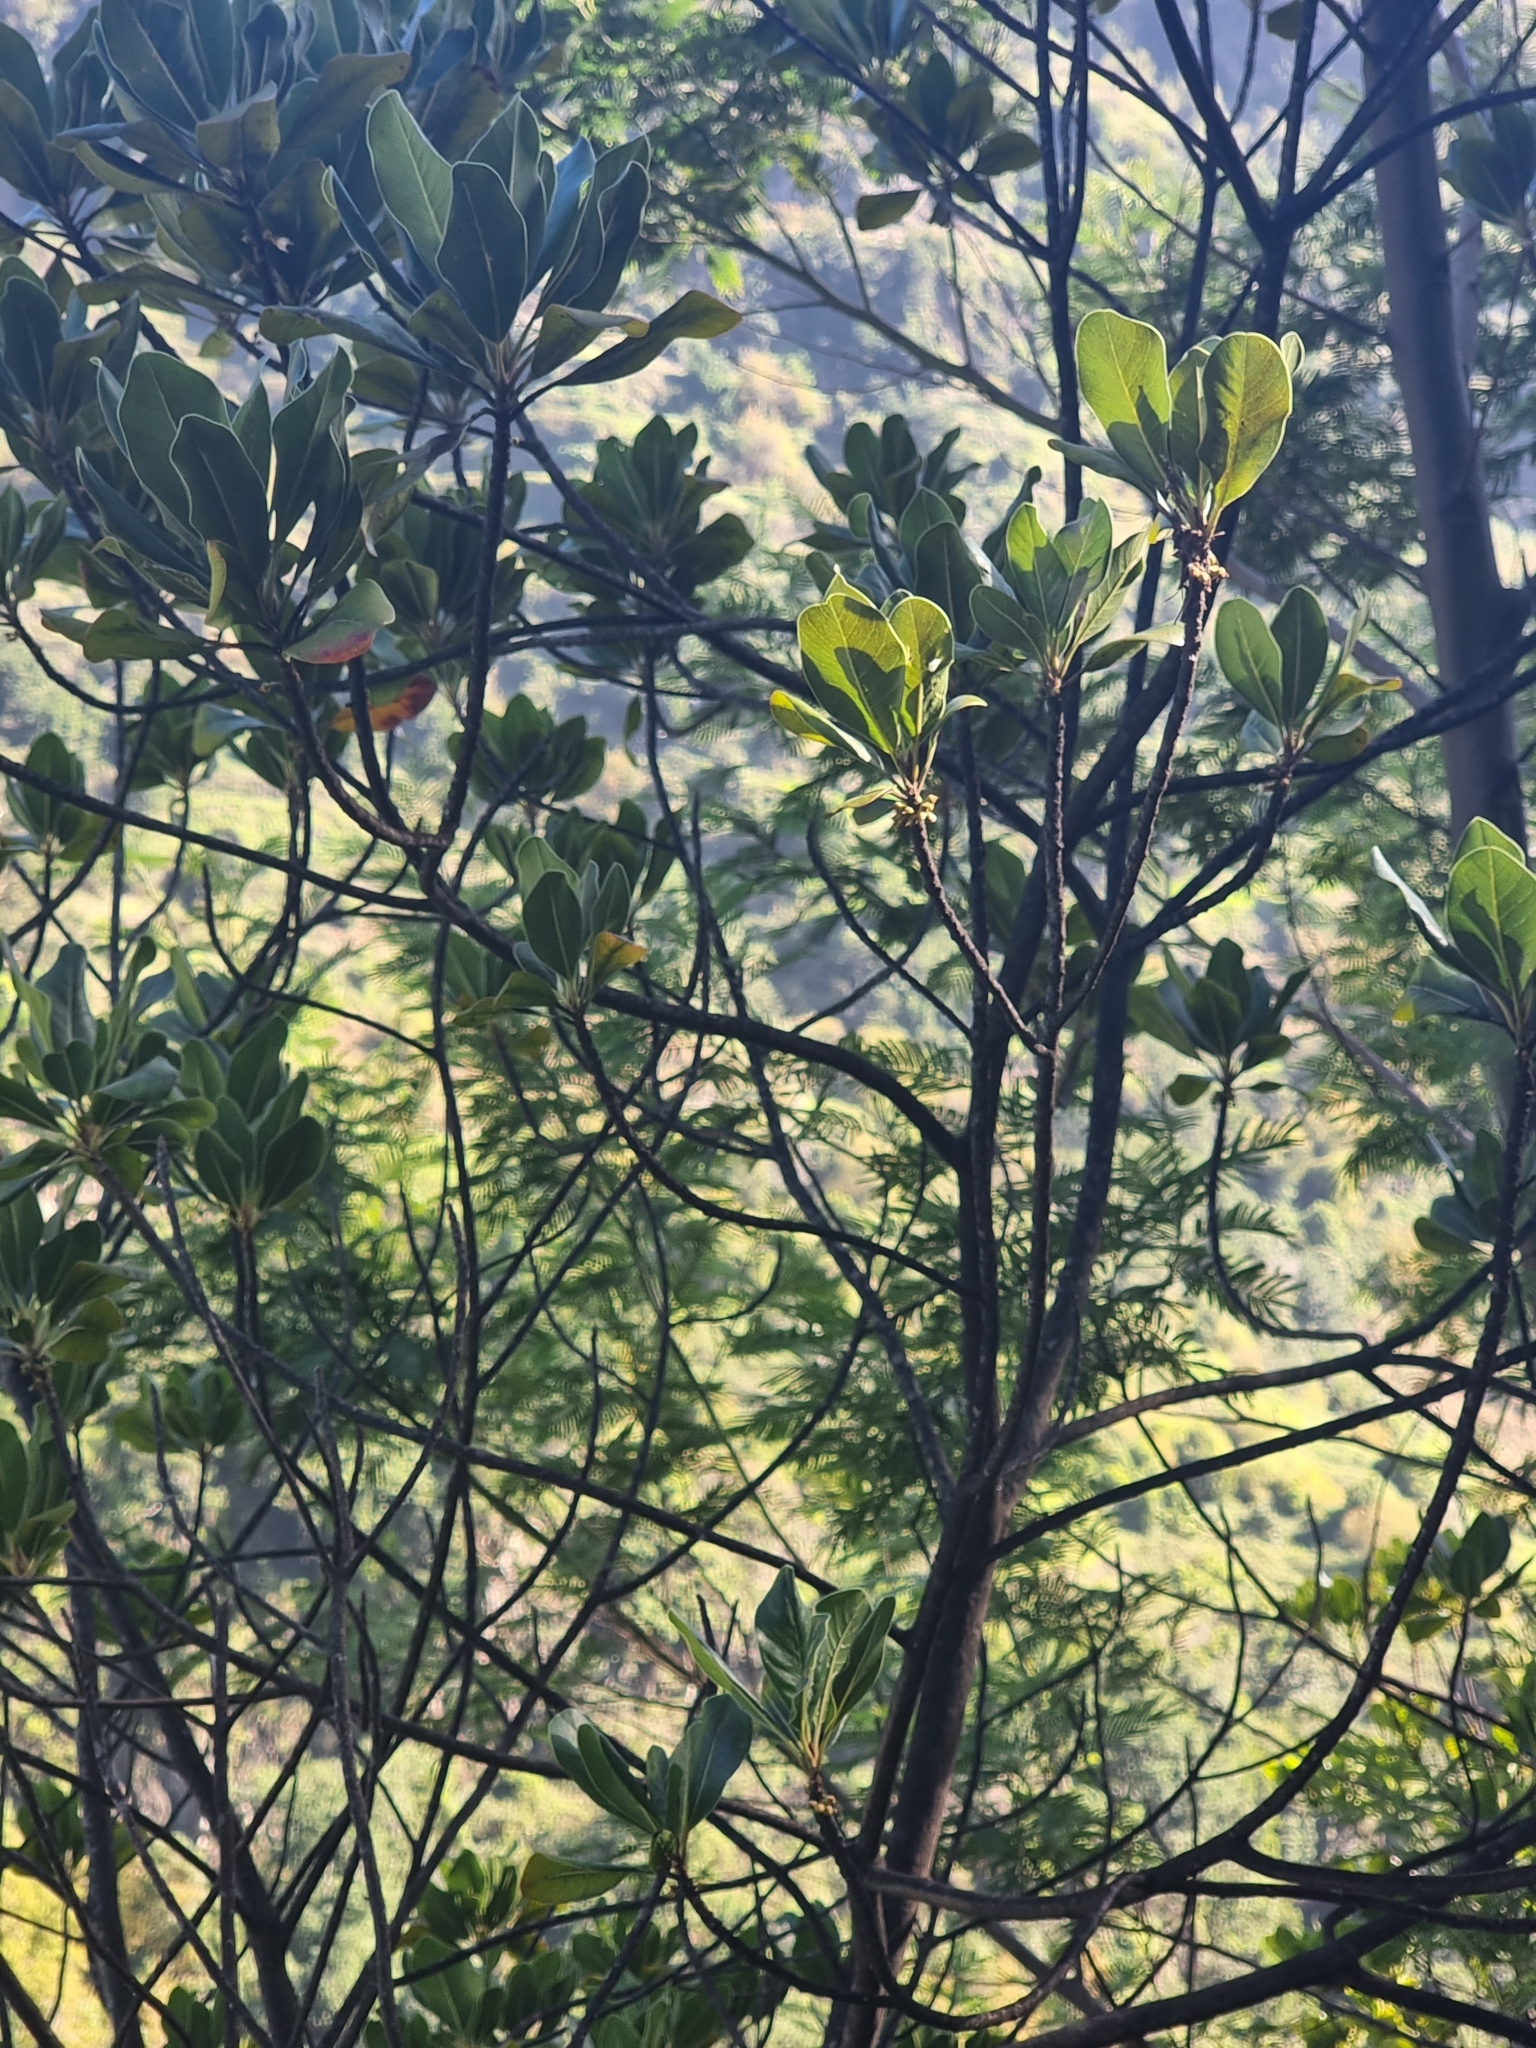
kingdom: Plantae
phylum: Tracheophyta
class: Magnoliopsida
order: Ericales
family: Sapotaceae
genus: Sideroxylon
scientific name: Sideroxylon mirmulans
